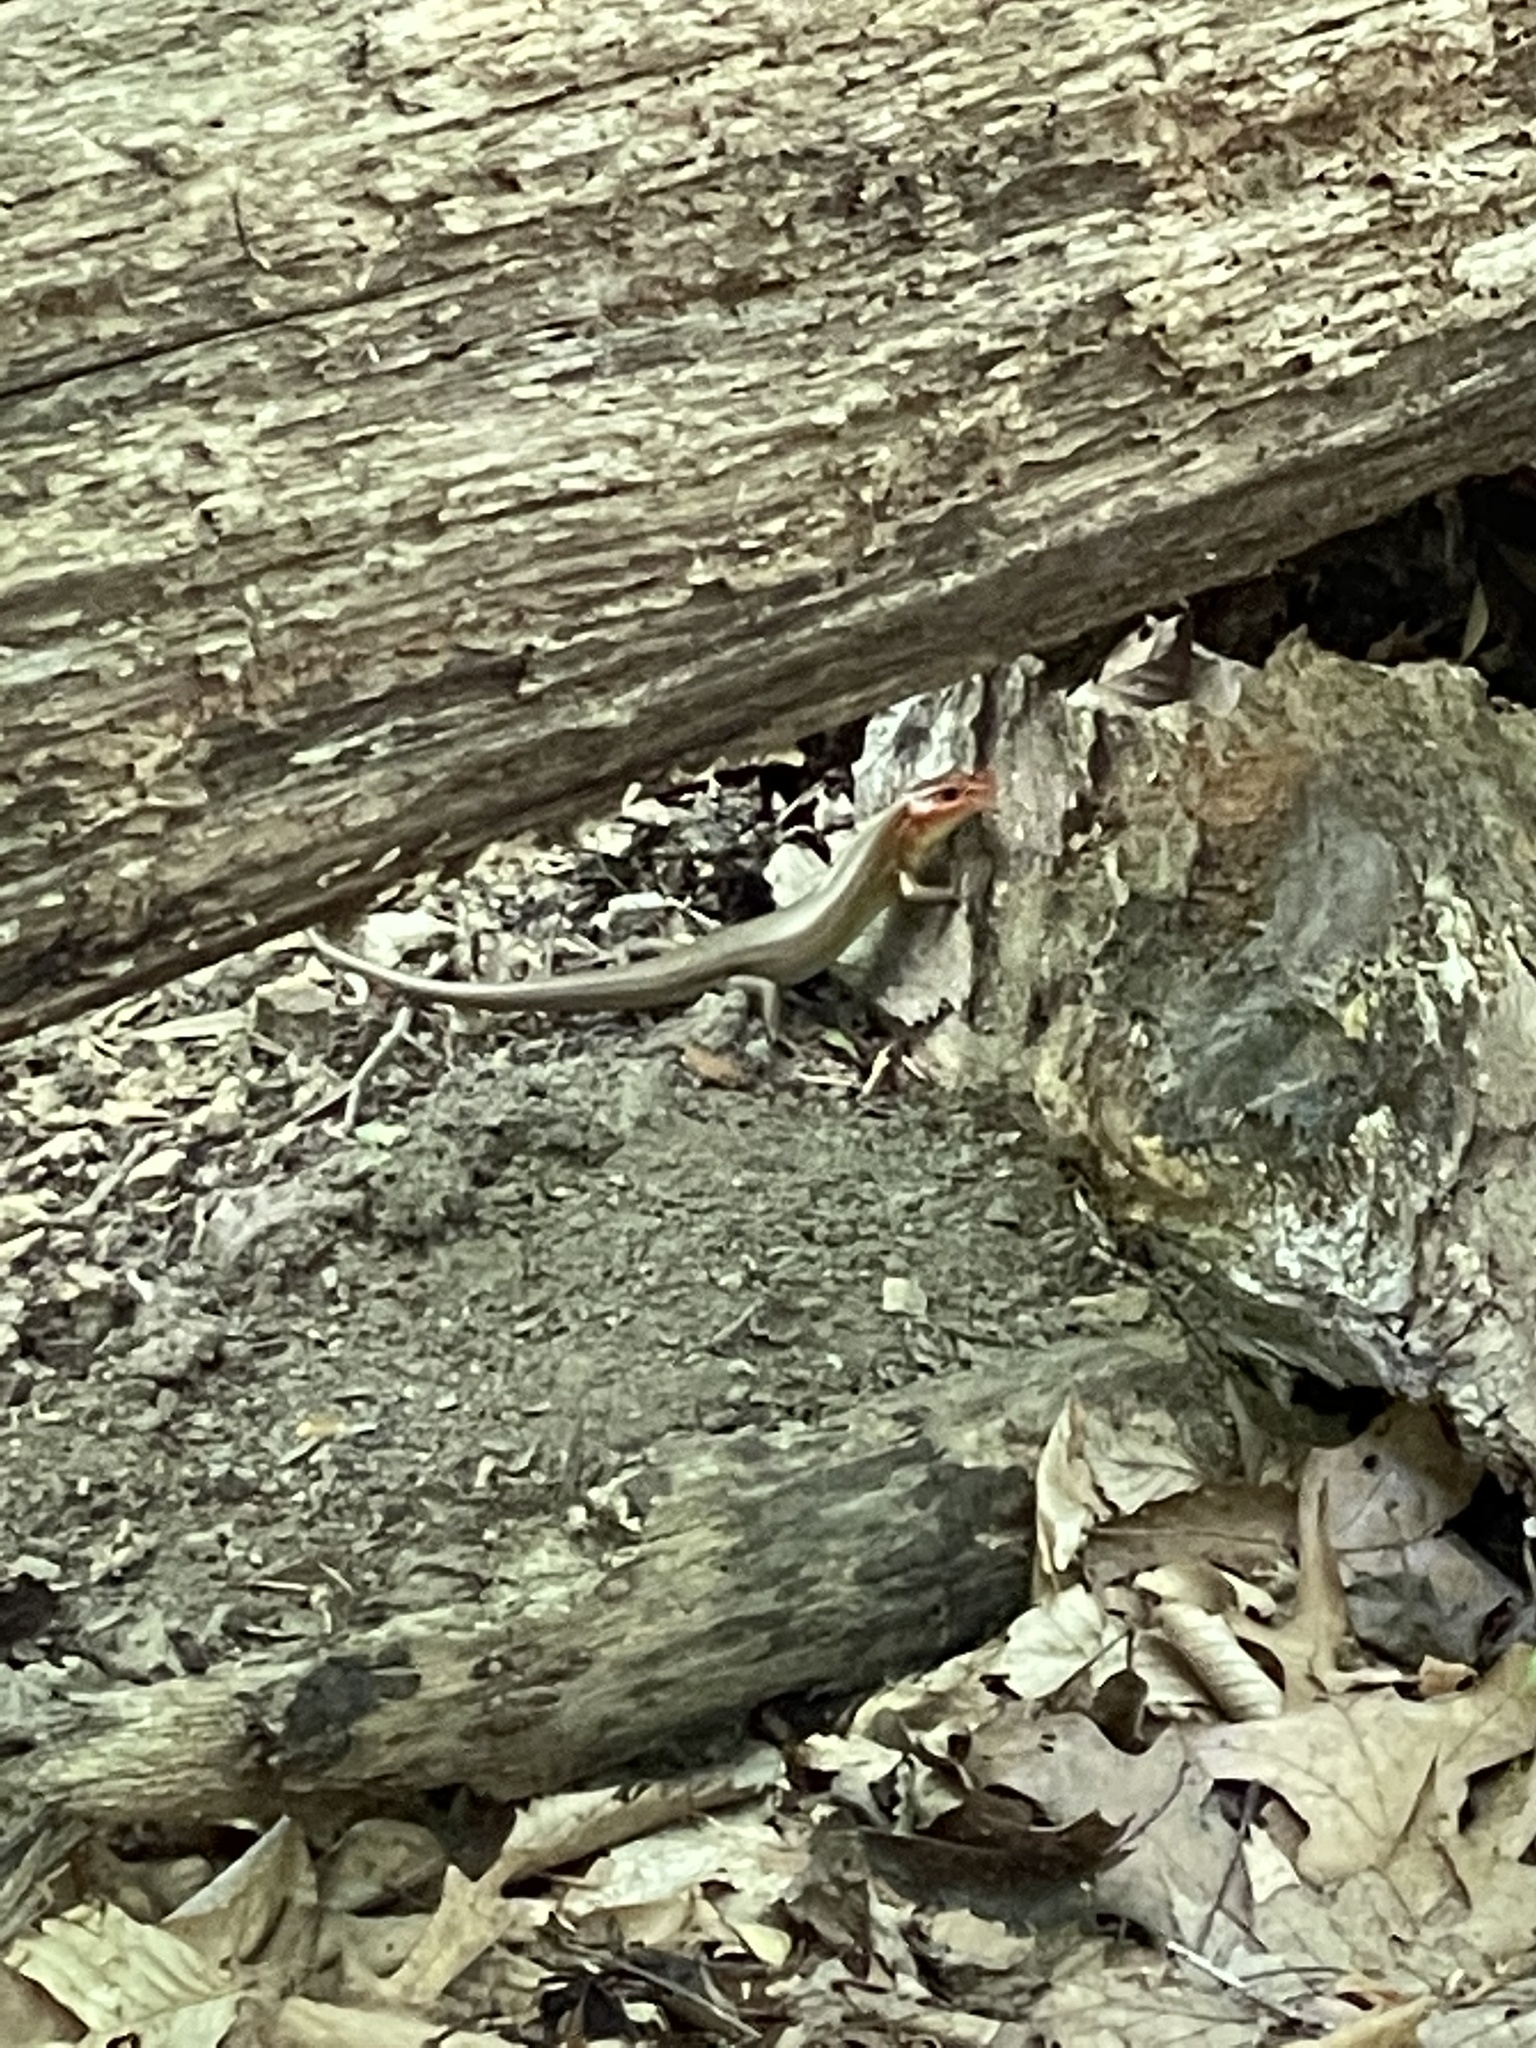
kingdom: Animalia
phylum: Chordata
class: Squamata
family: Scincidae
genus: Plestiodon
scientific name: Plestiodon laticeps
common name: Broadhead skink
